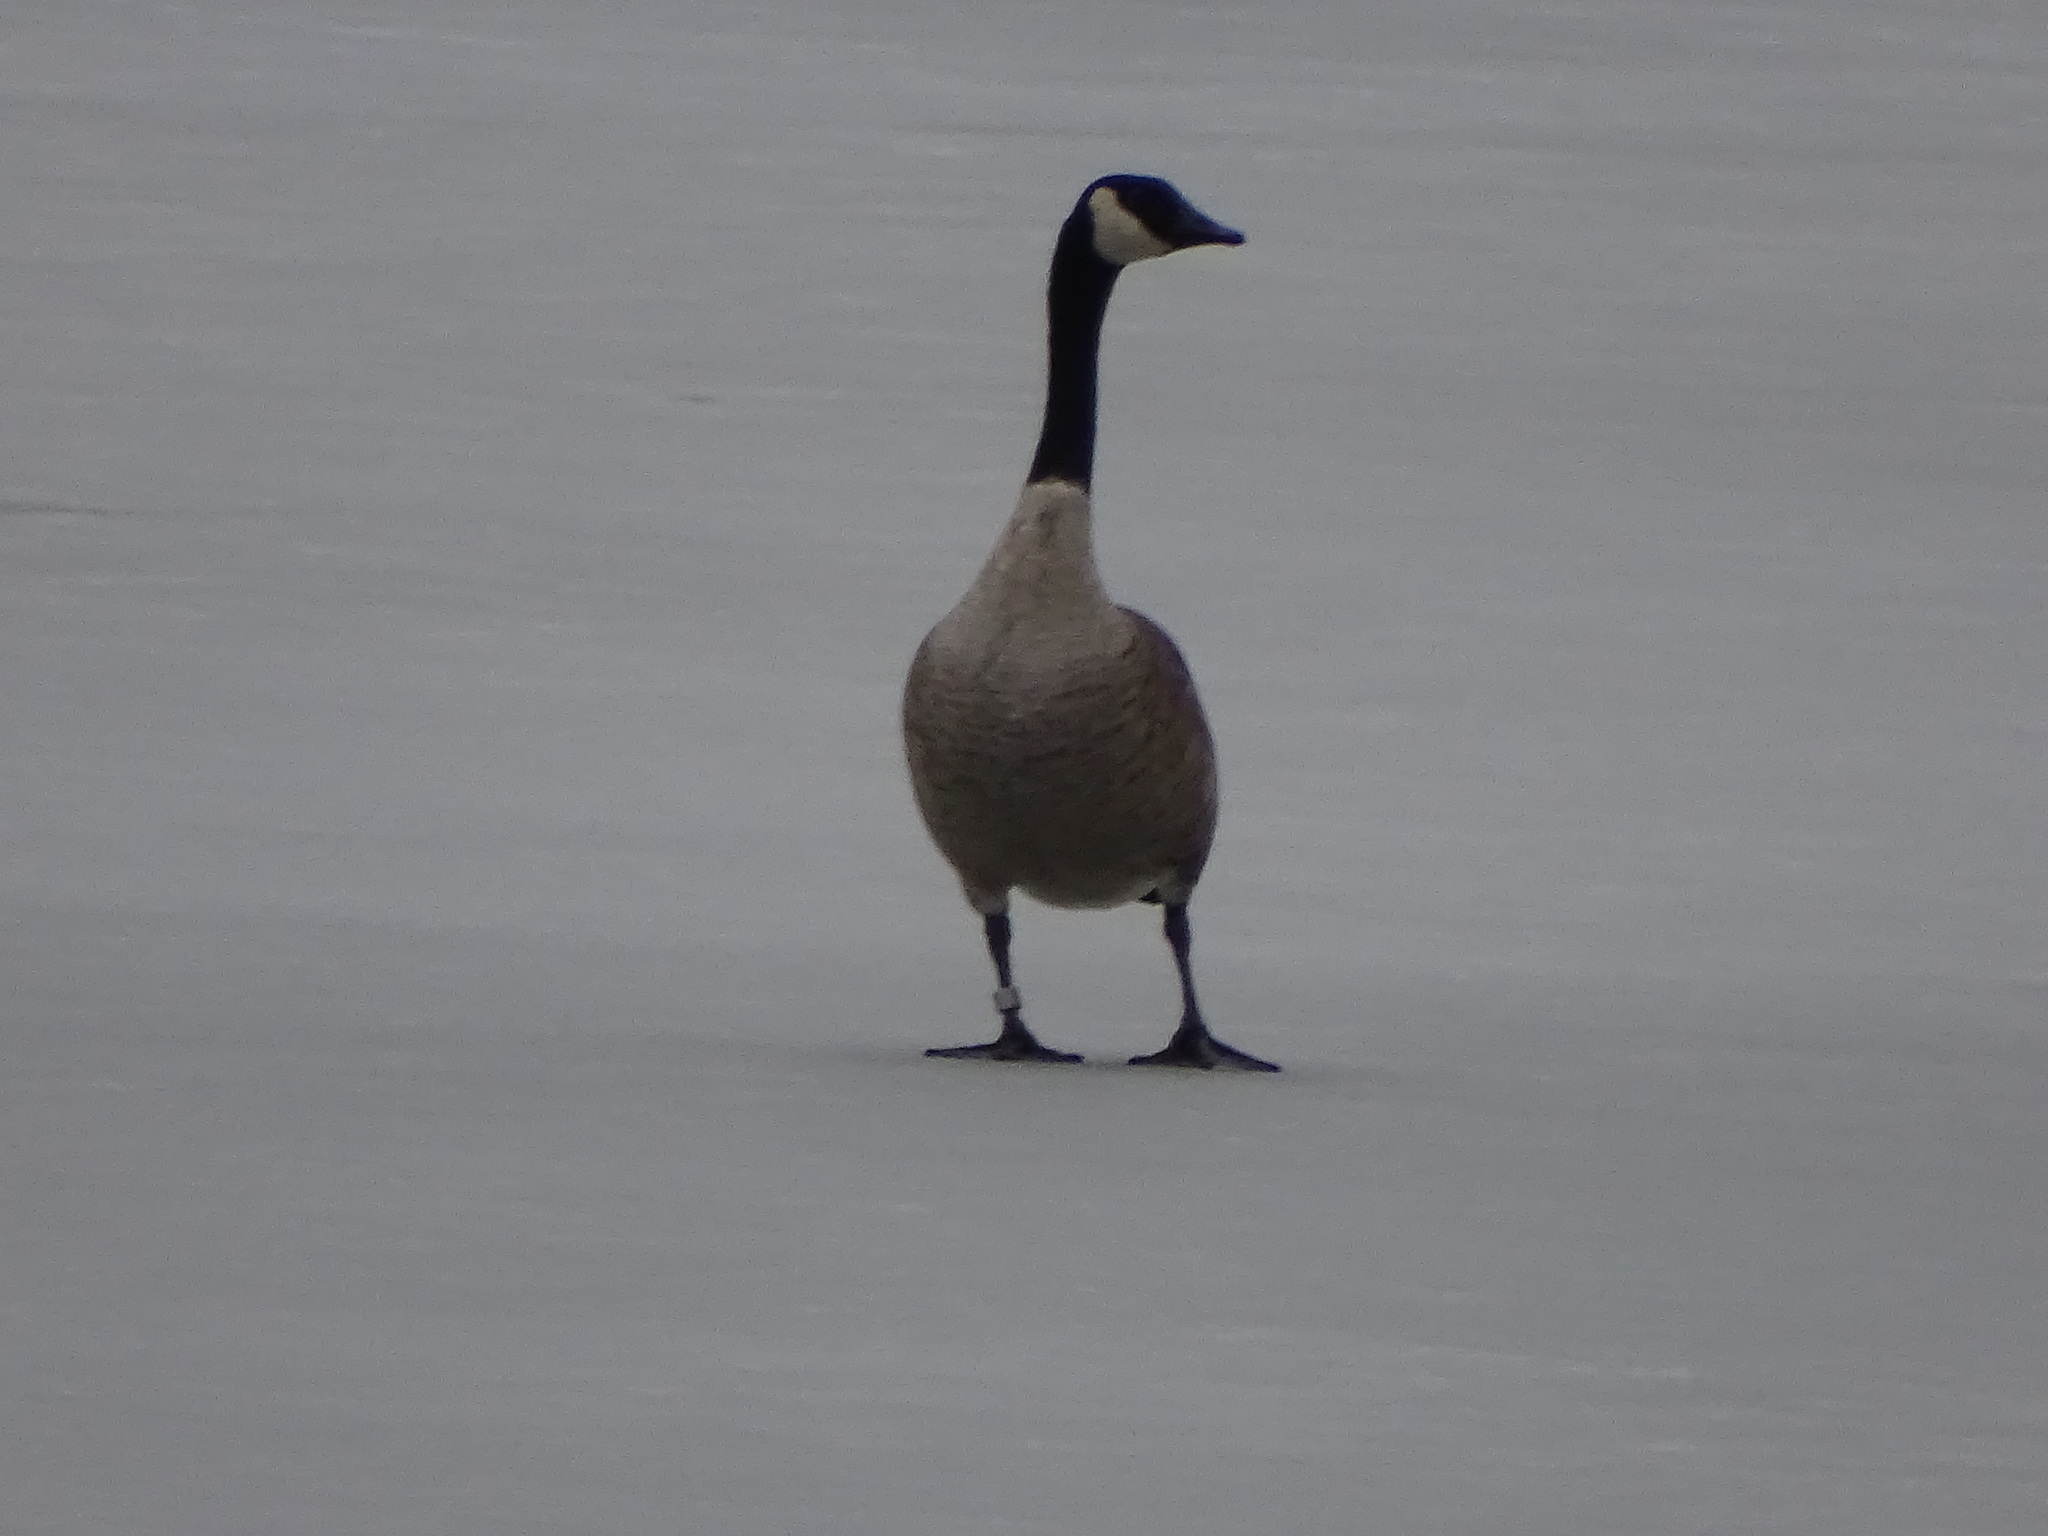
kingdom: Animalia
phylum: Chordata
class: Aves
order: Anseriformes
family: Anatidae
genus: Branta
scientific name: Branta canadensis
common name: Canada goose
